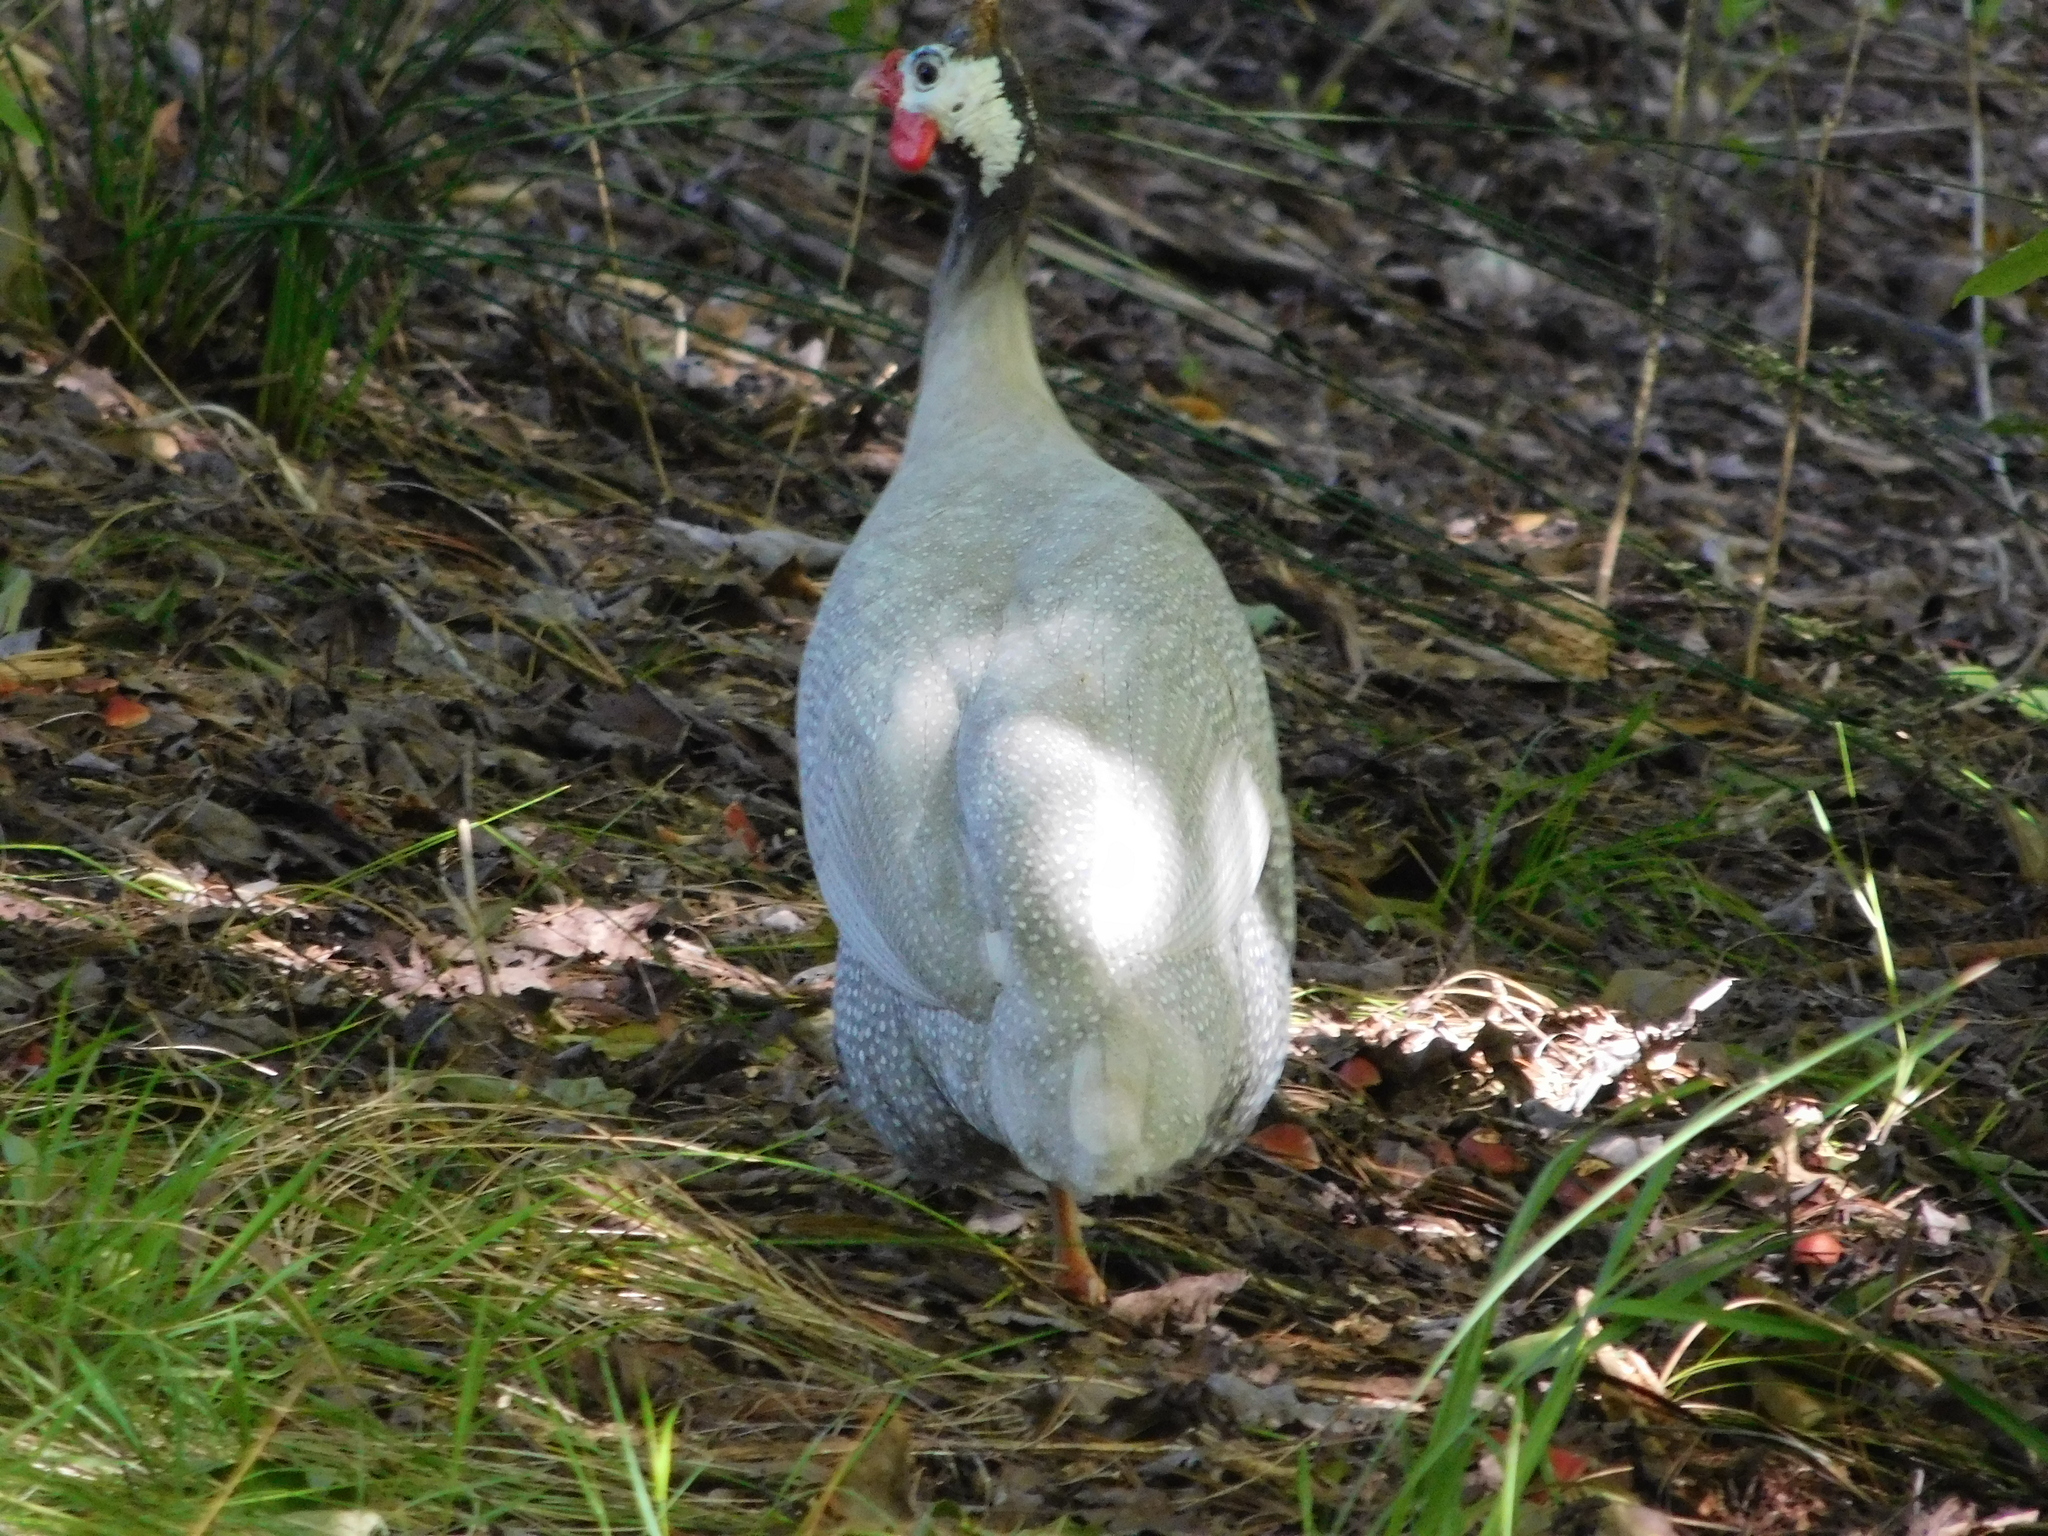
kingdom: Animalia
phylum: Chordata
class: Aves
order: Galliformes
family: Numididae
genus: Numida
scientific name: Numida meleagris
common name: Helmeted guineafowl
